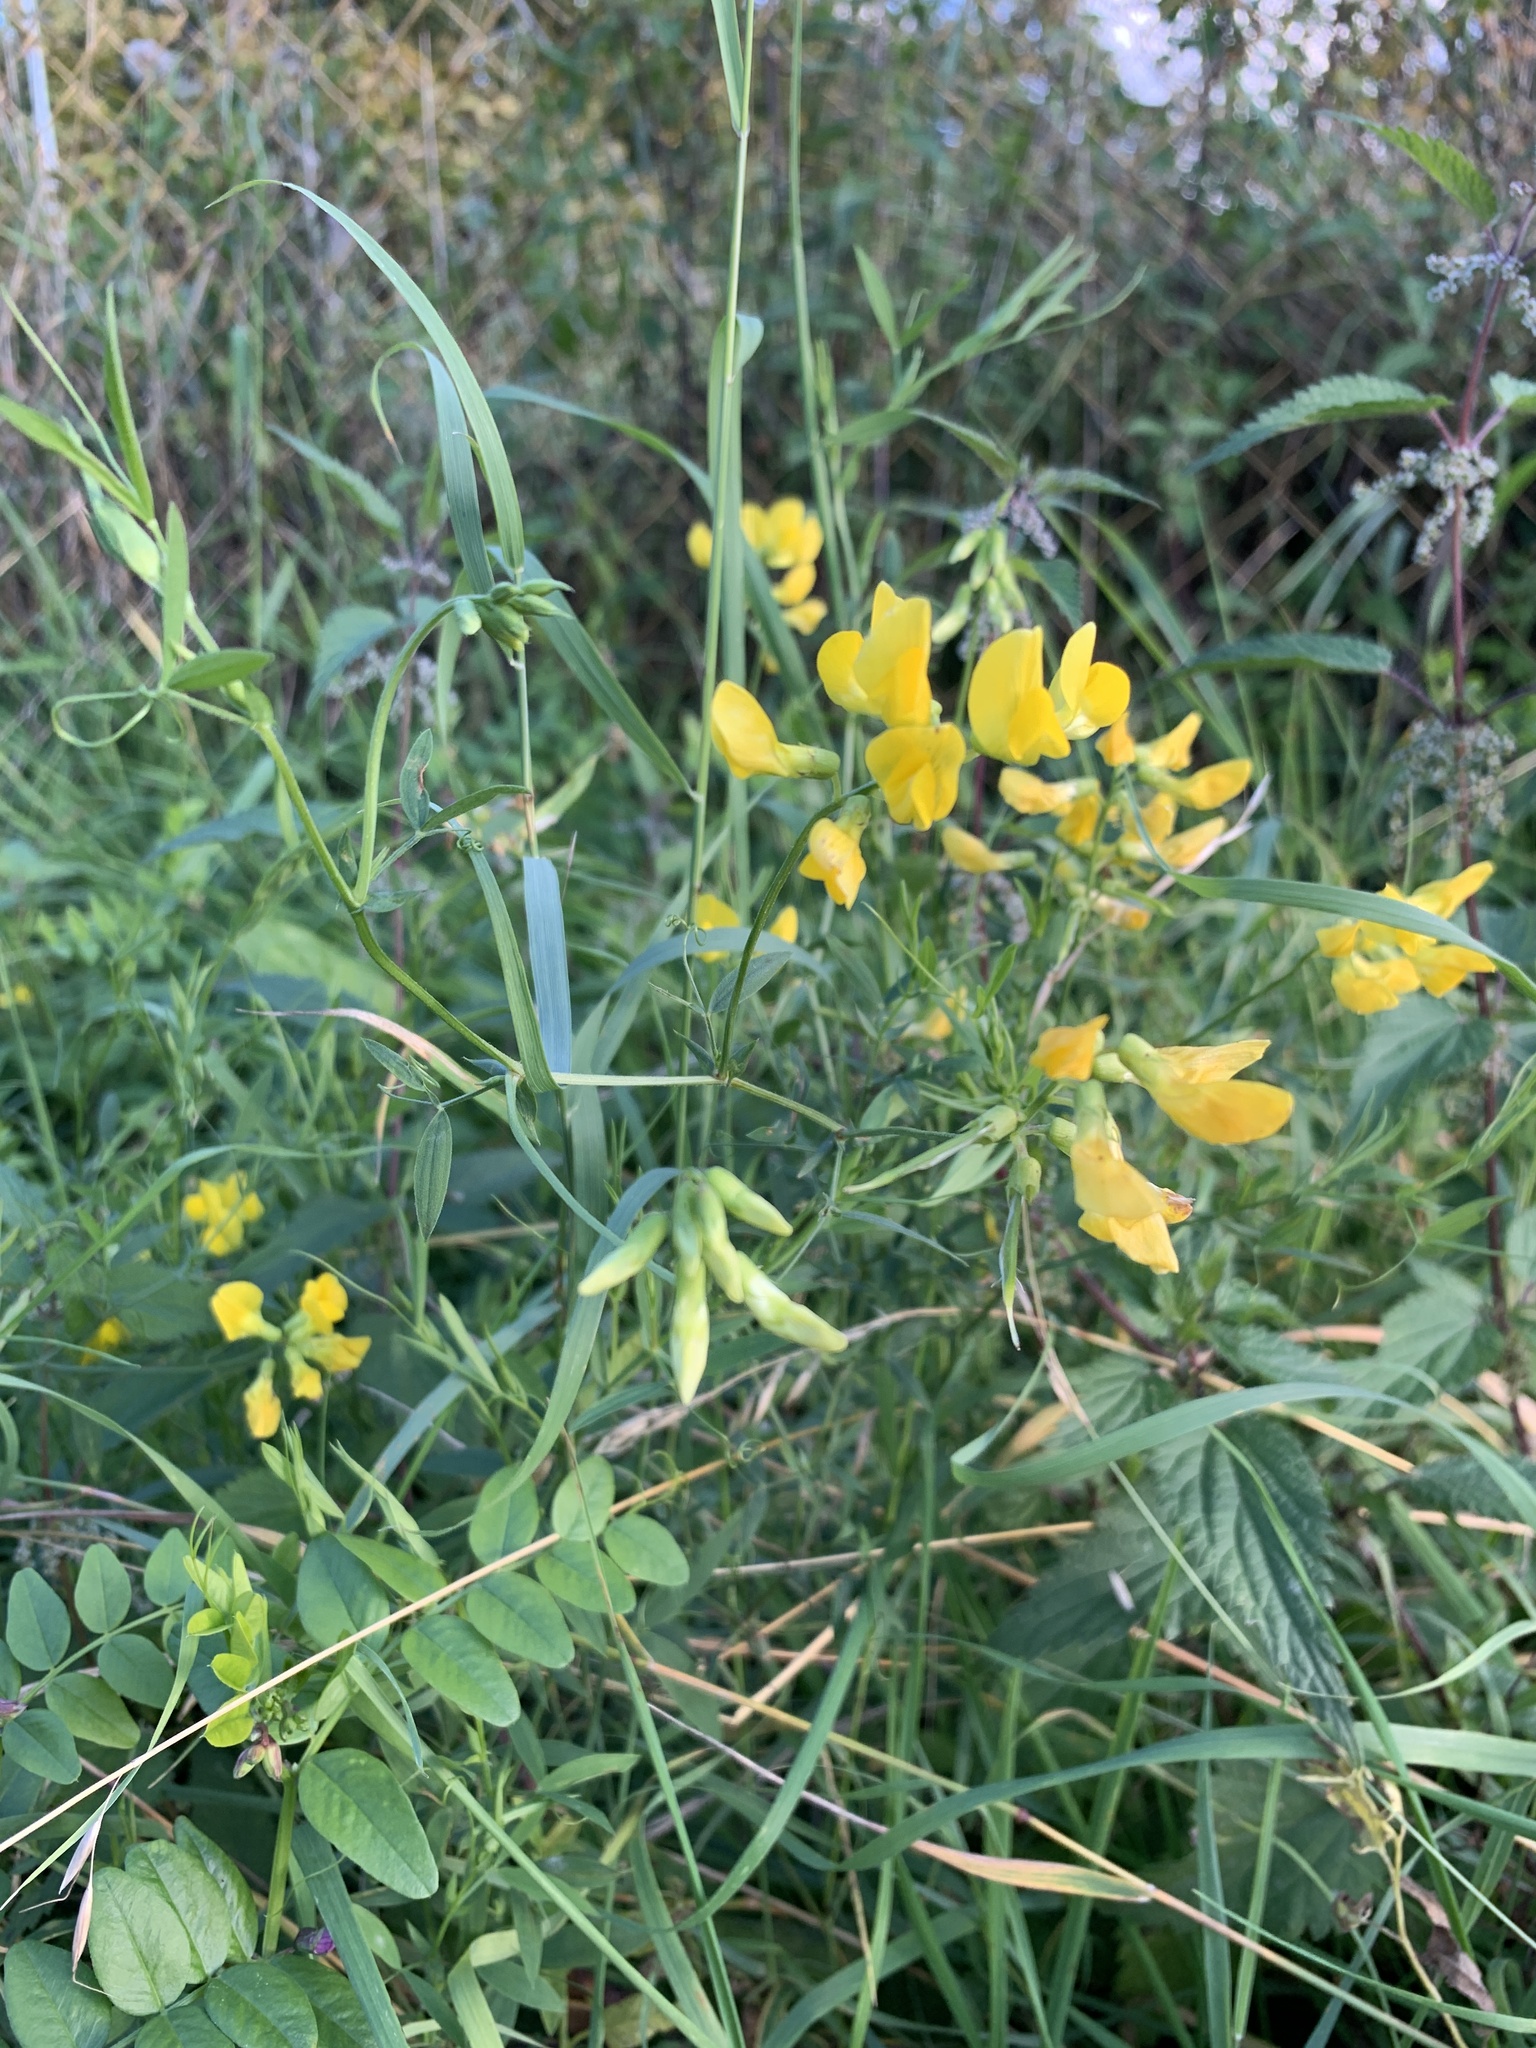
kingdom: Plantae
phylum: Tracheophyta
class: Magnoliopsida
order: Fabales
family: Fabaceae
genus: Lathyrus
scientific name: Lathyrus pratensis
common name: Meadow vetchling
